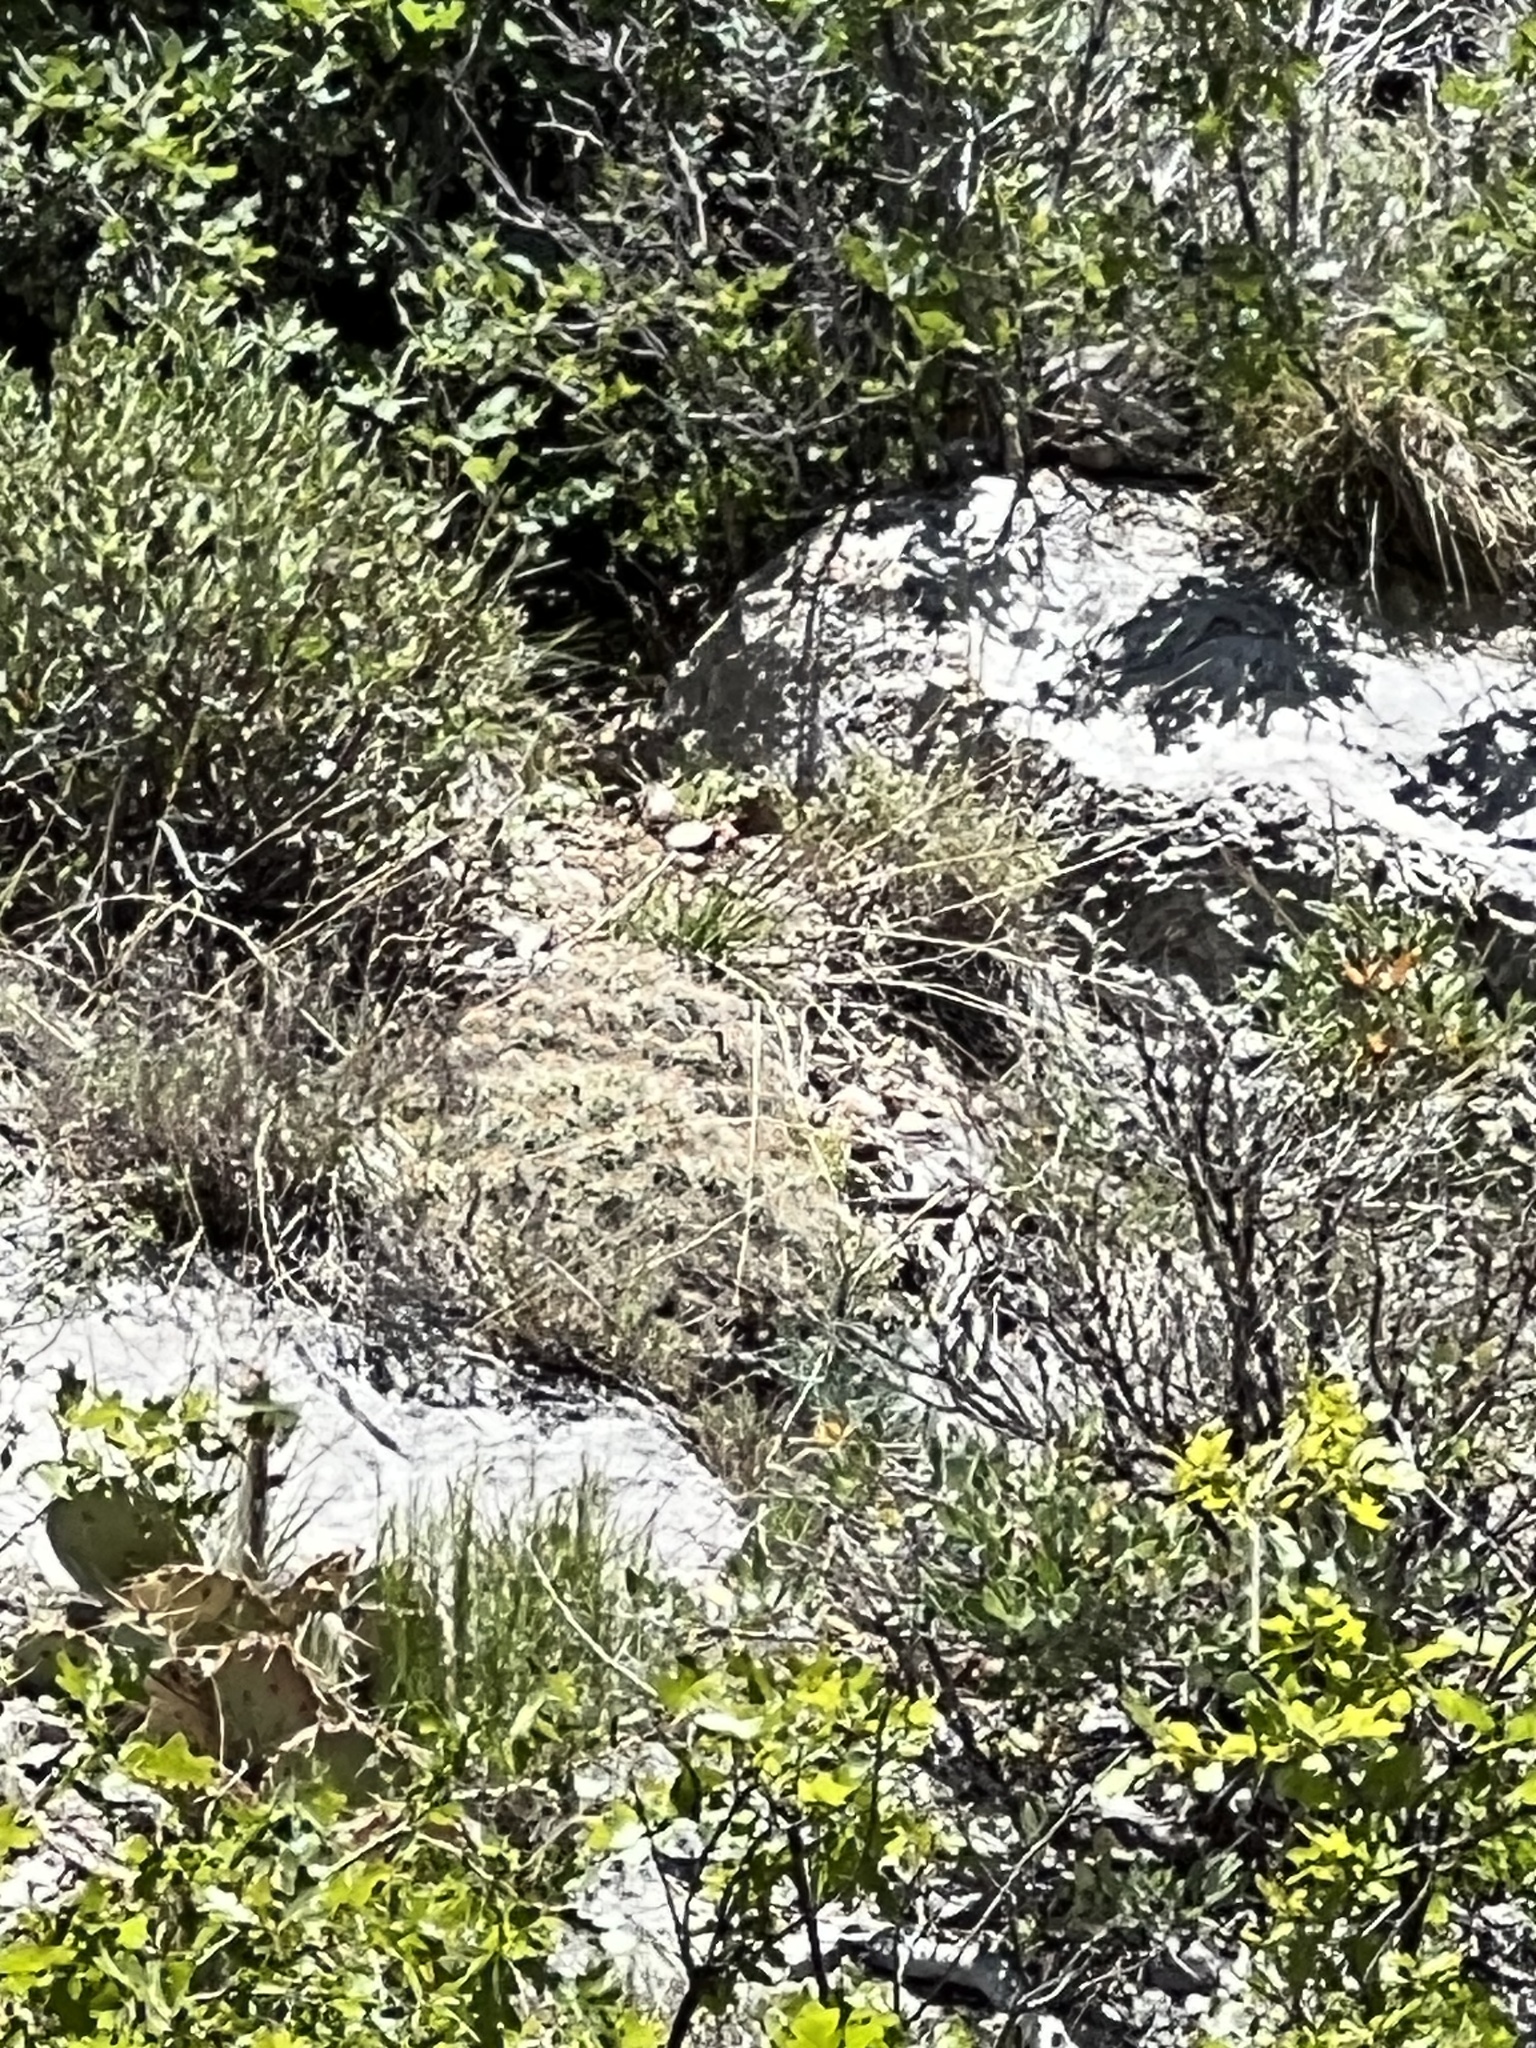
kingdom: Plantae
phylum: Tracheophyta
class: Magnoliopsida
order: Caryophyllales
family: Cactaceae
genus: Echinocereus
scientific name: Echinocereus triglochidiatus
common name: Claretcup hedgehog
